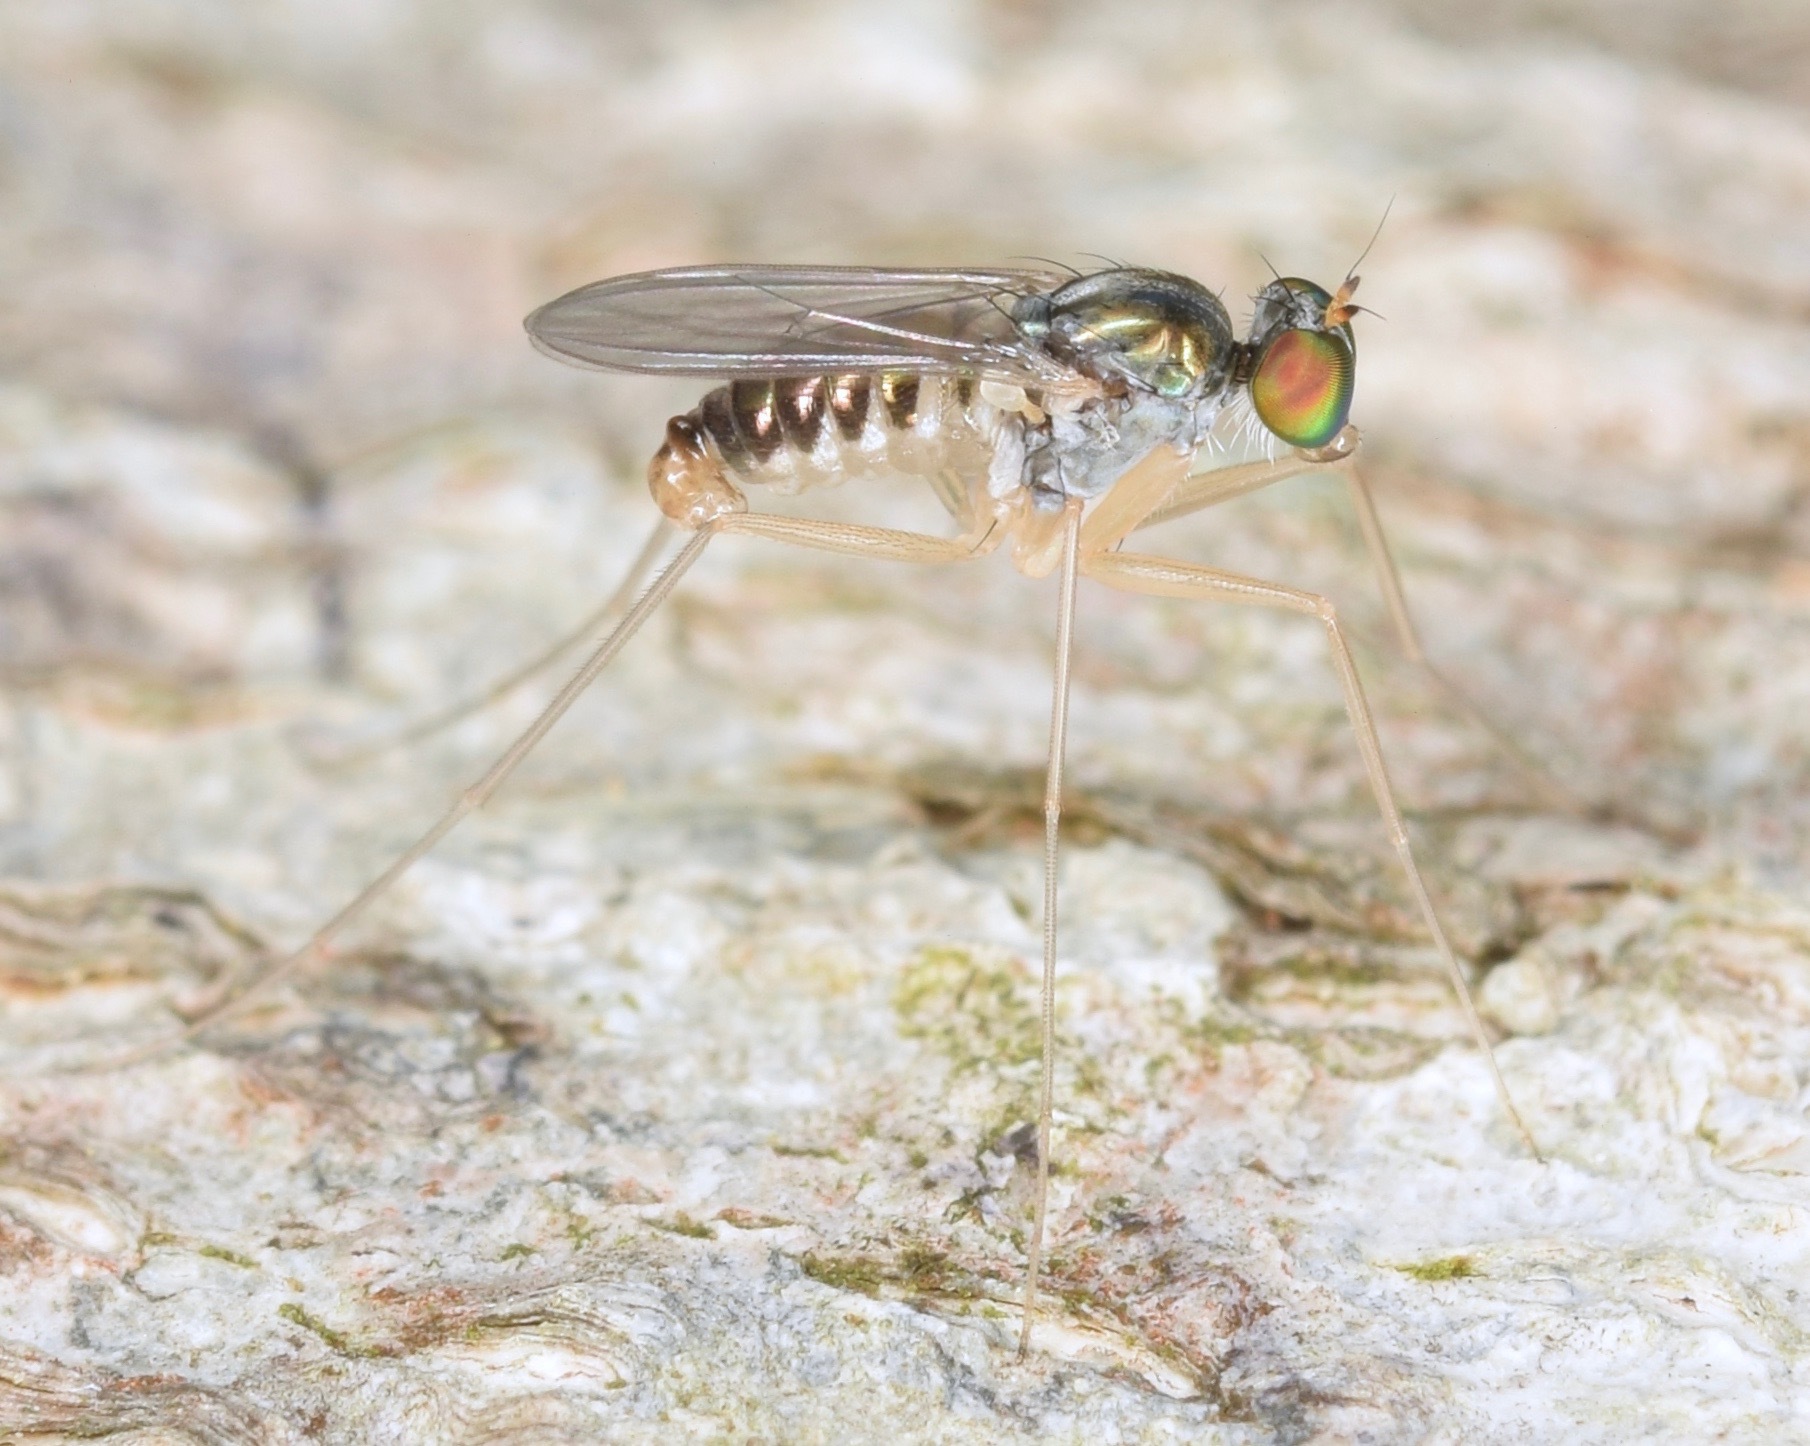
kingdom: Animalia
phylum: Arthropoda
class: Insecta
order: Diptera
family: Dolichopodidae
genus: Dactylomyia
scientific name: Dactylomyia lateralis
